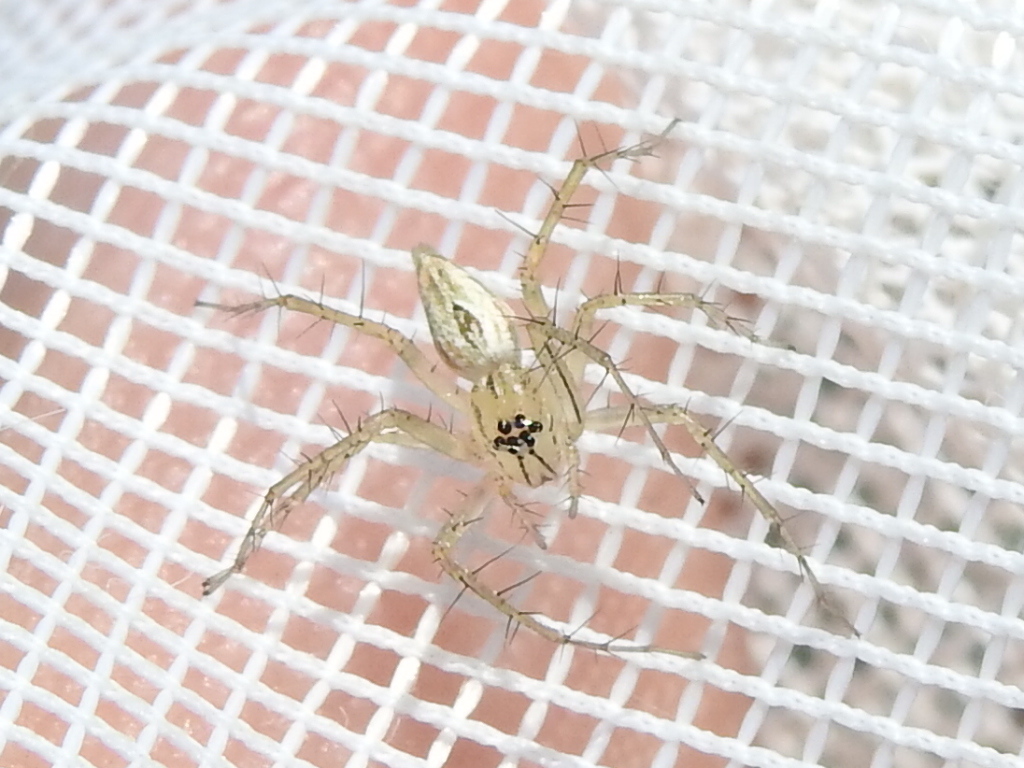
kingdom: Animalia
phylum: Arthropoda
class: Arachnida
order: Araneae
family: Oxyopidae
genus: Oxyopes
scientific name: Oxyopes salticus
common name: Lynx spiders
